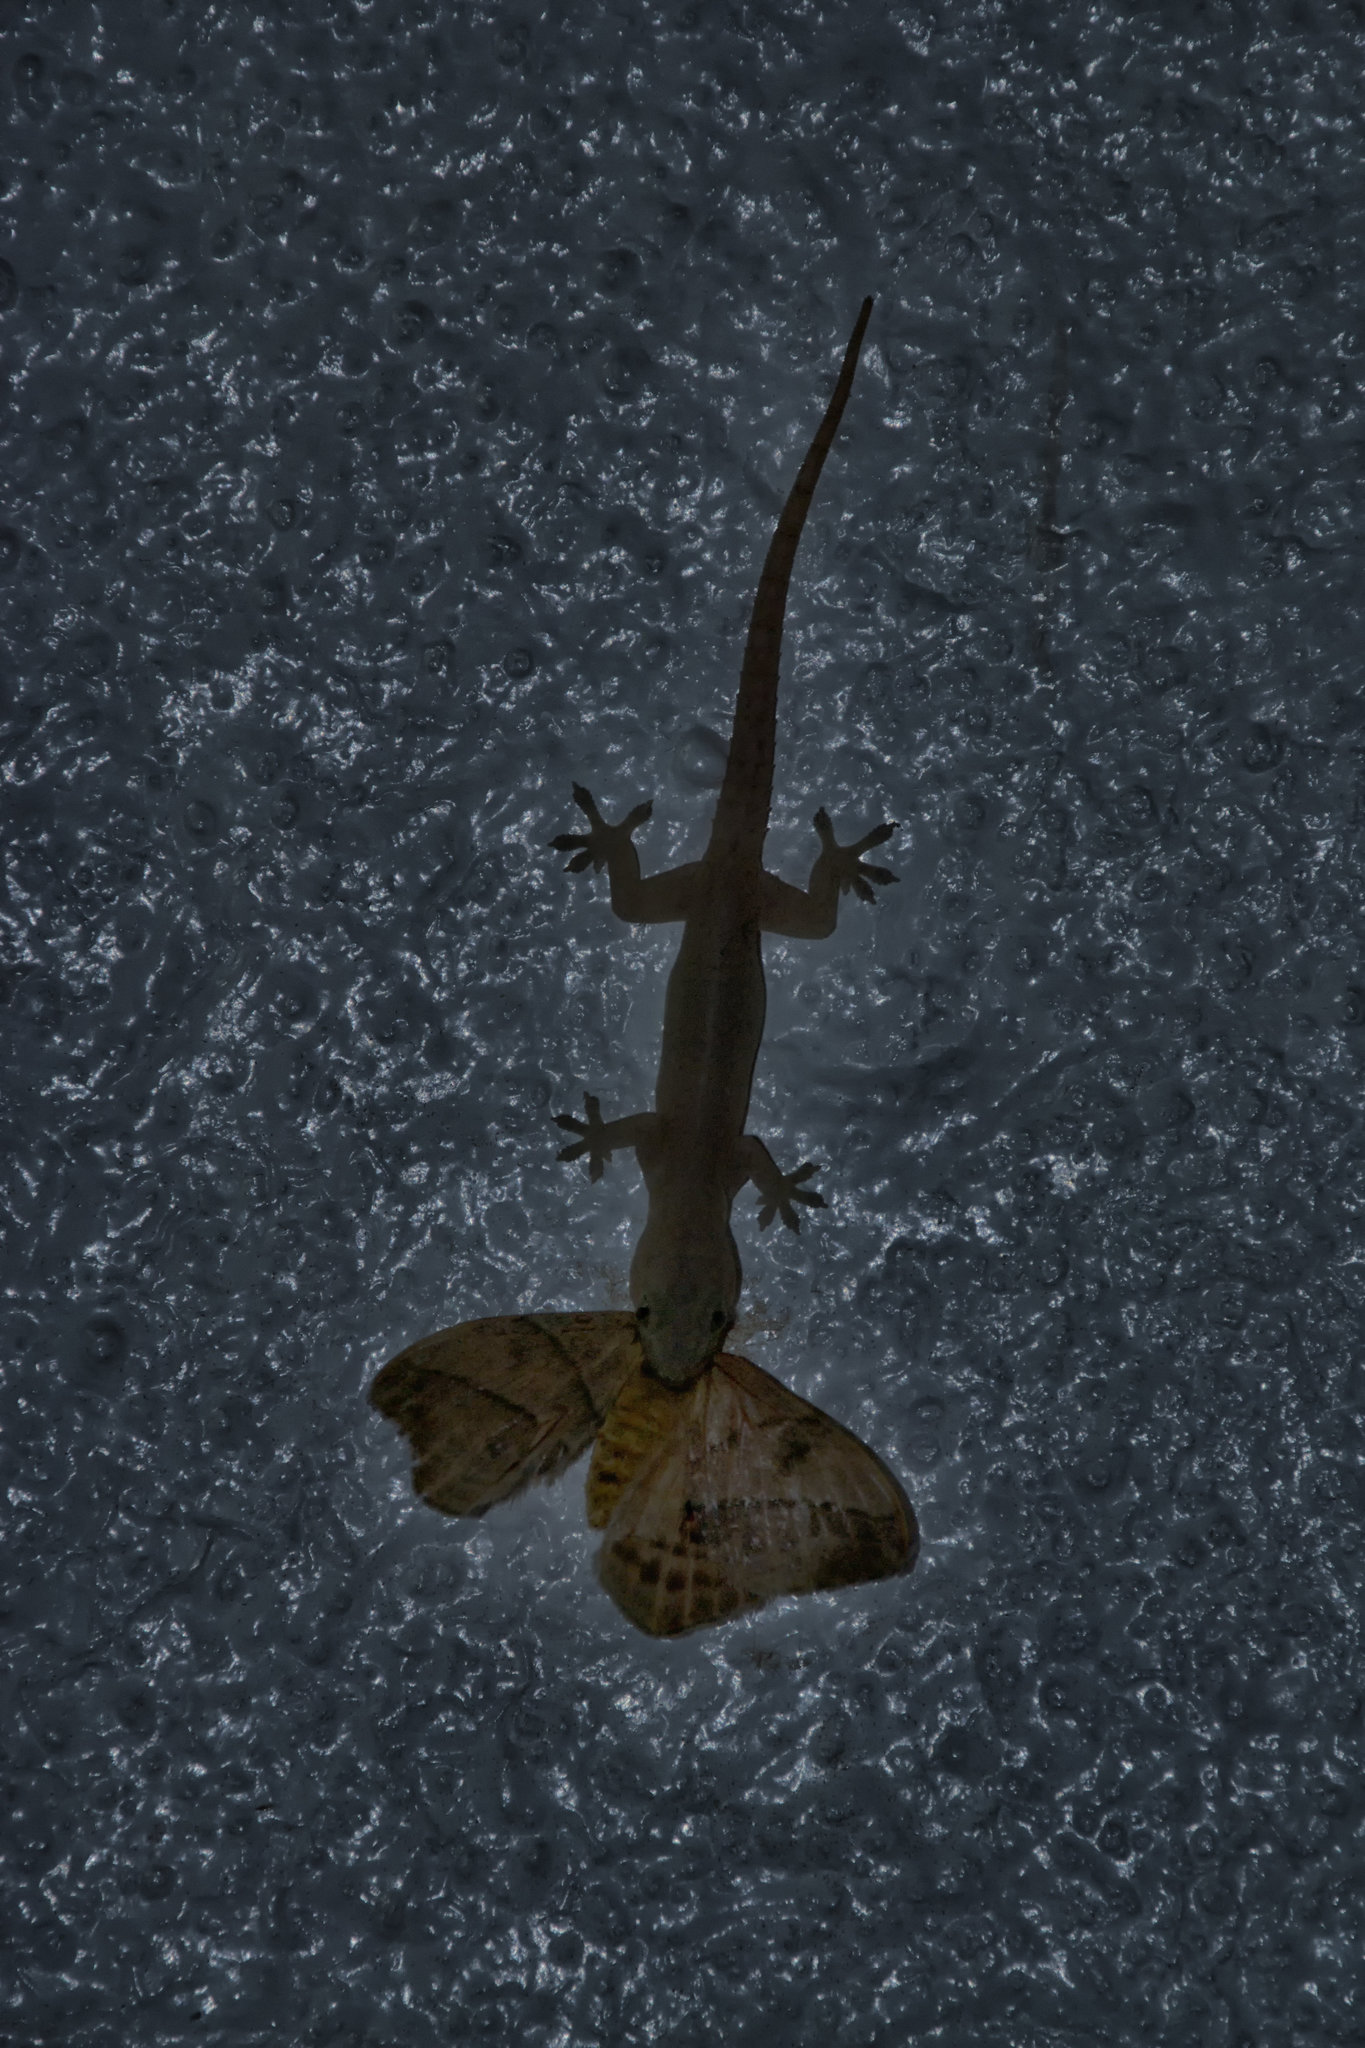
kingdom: Animalia
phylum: Chordata
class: Squamata
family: Gekkonidae
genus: Hemidactylus
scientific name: Hemidactylus frenatus
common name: Common house gecko
